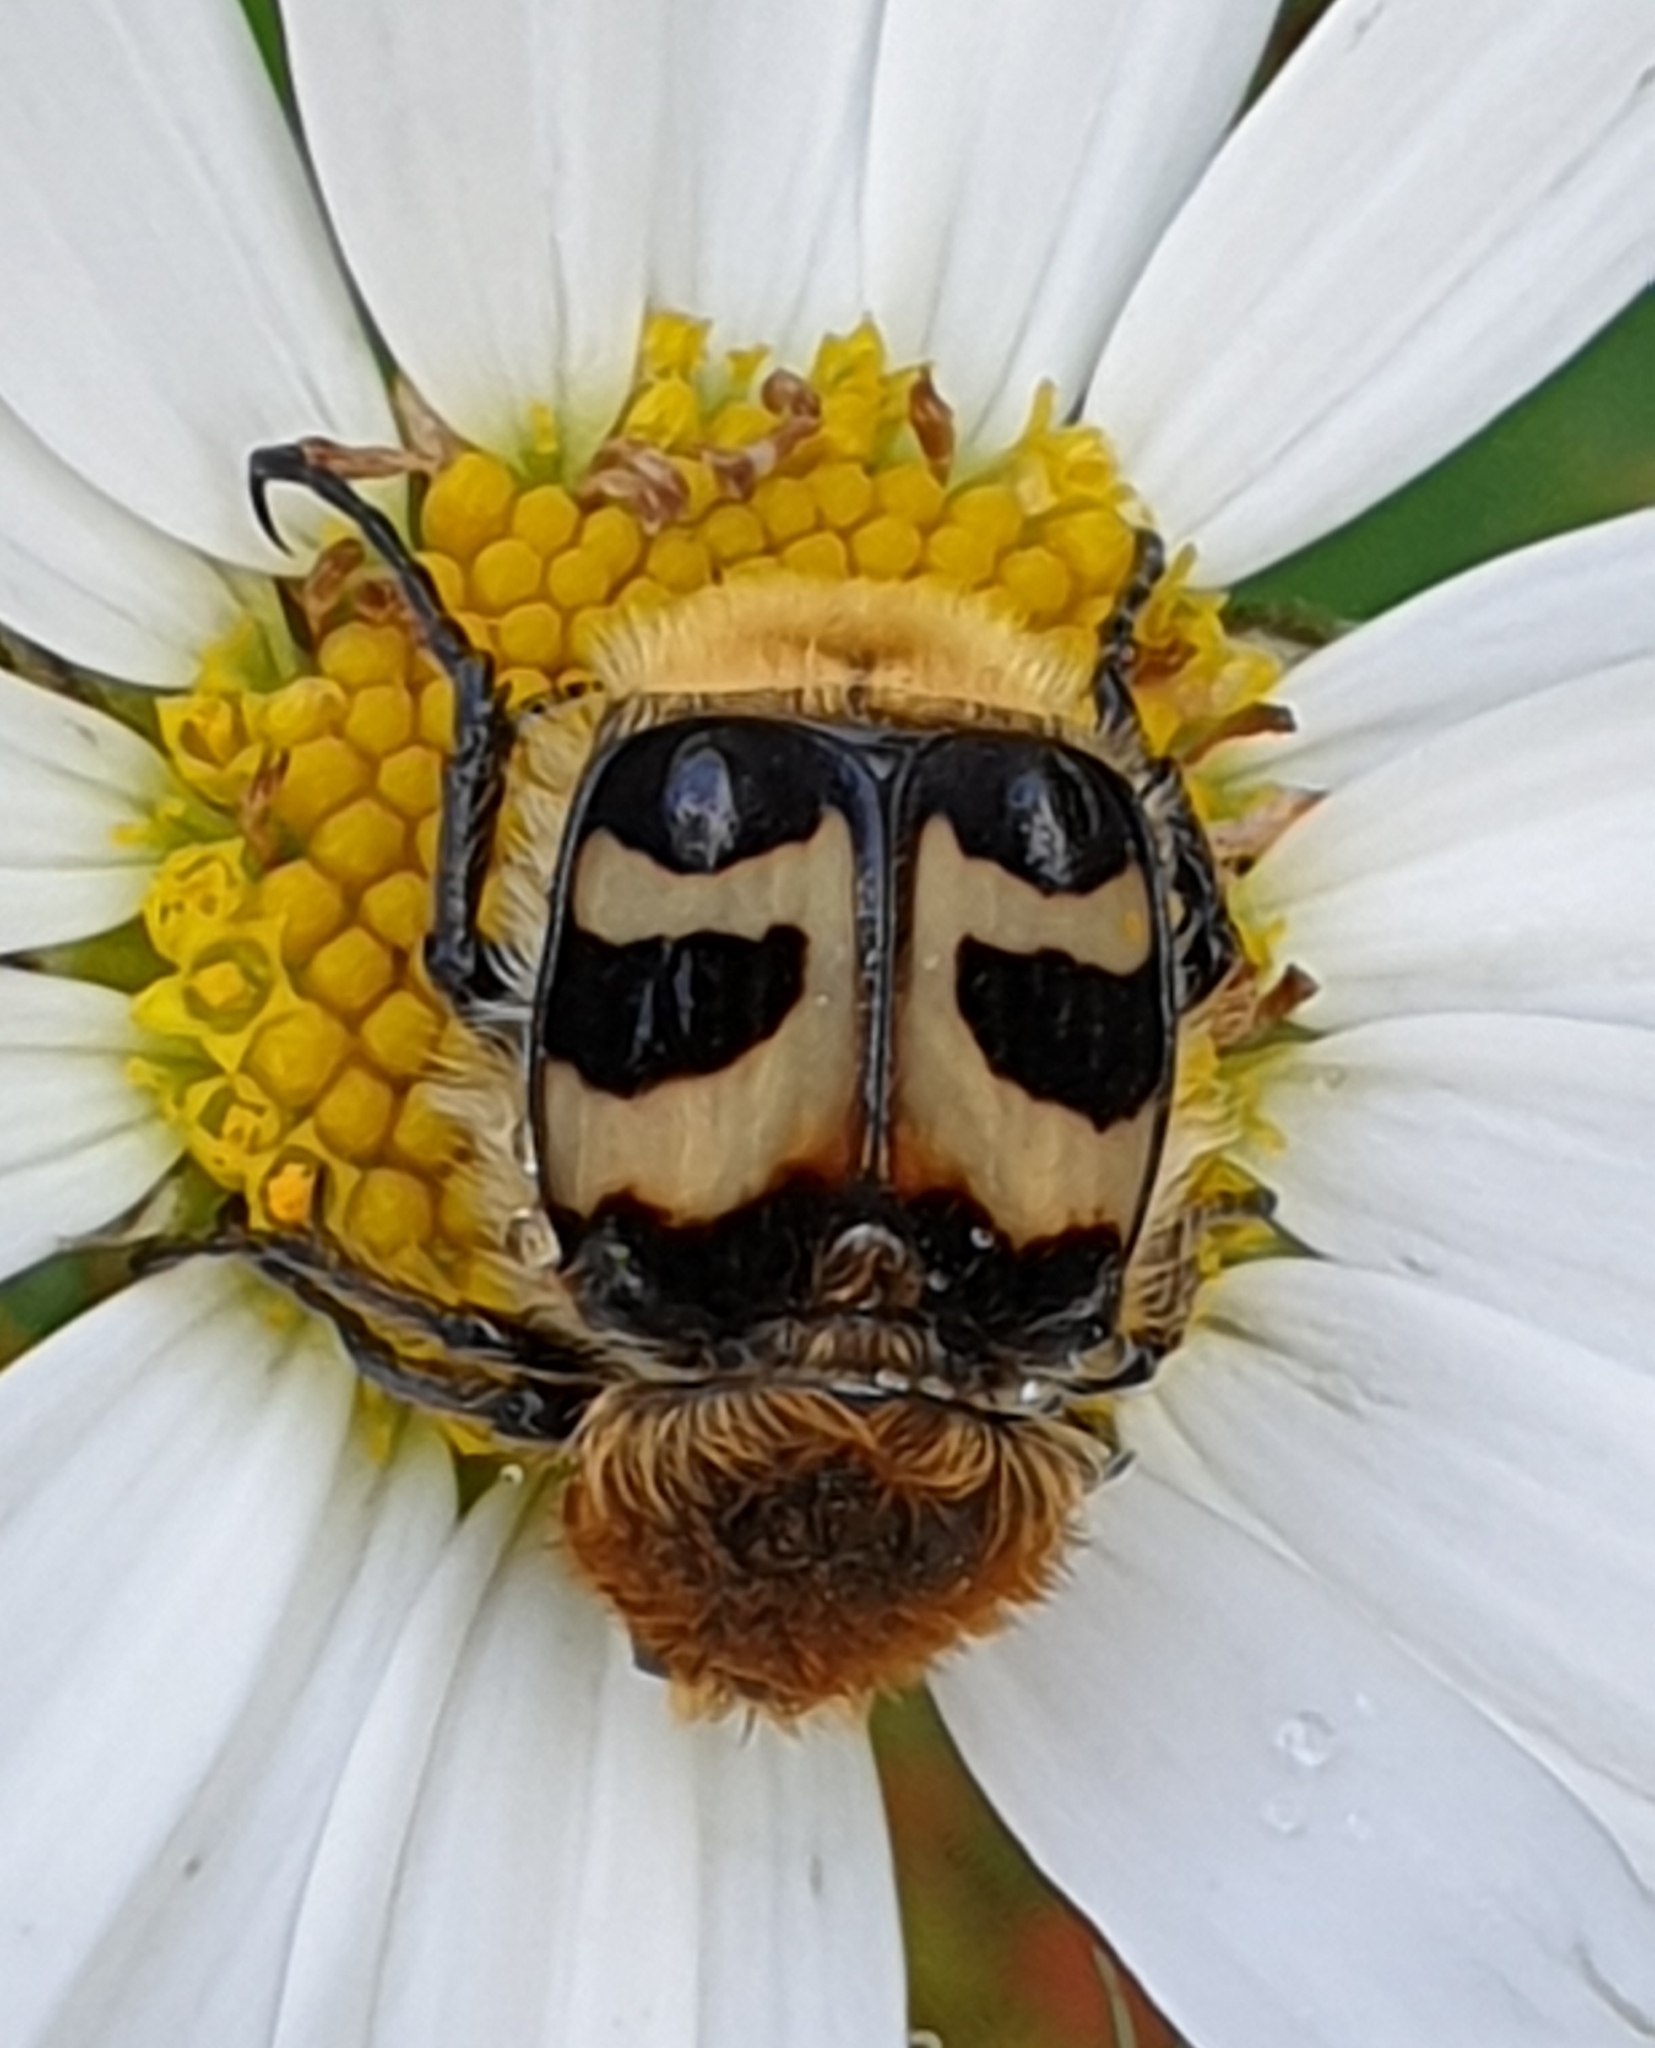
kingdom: Animalia
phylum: Arthropoda
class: Insecta
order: Coleoptera
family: Scarabaeidae
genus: Trichius
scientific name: Trichius fasciatus
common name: Bee beetle
